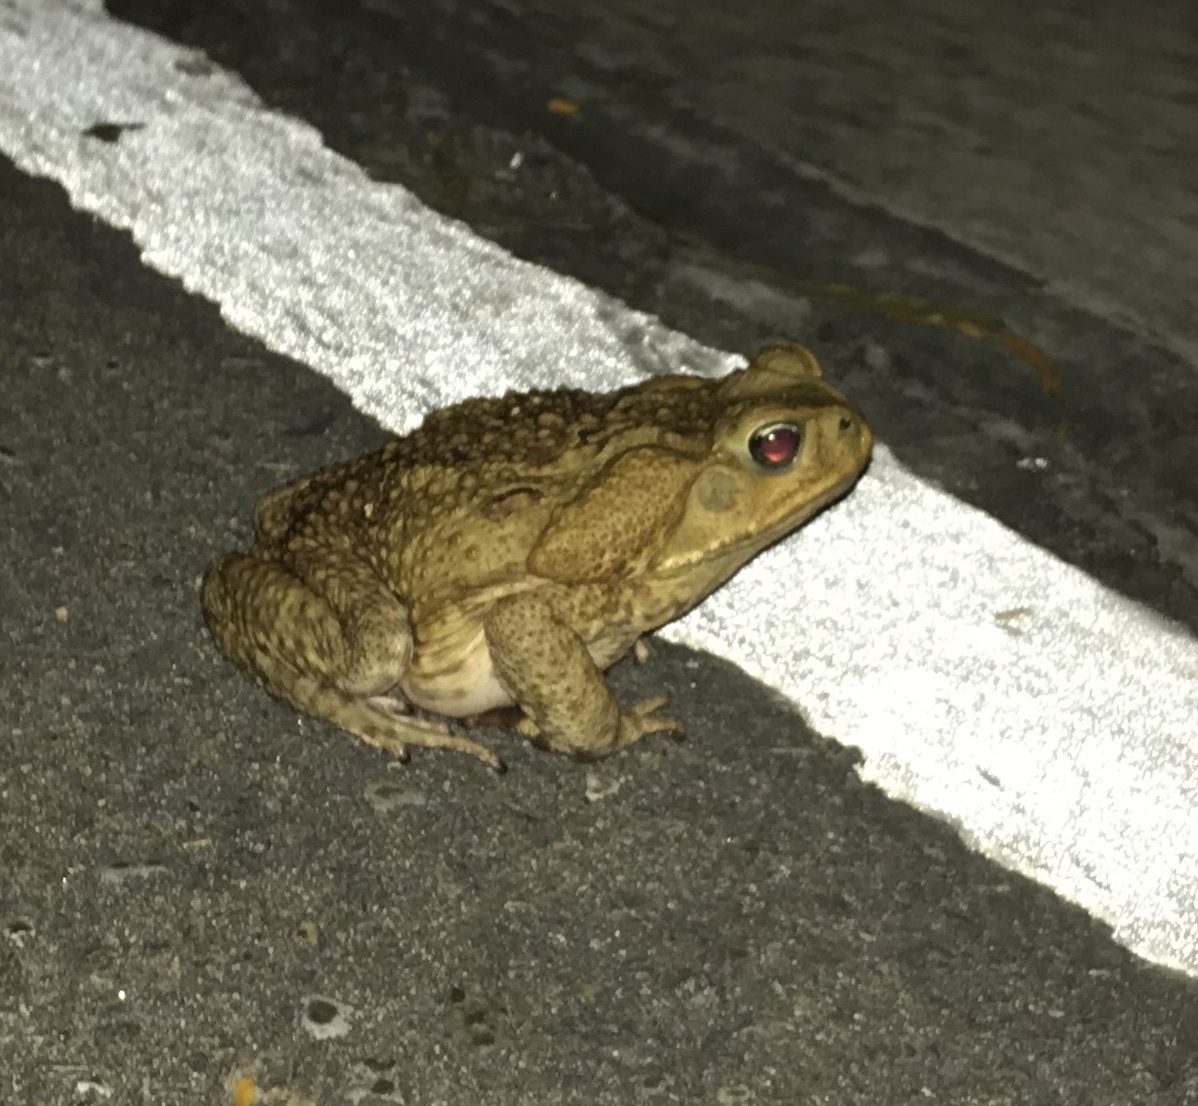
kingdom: Animalia
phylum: Chordata
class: Amphibia
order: Anura
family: Bufonidae
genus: Rhinella
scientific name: Rhinella horribilis
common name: Mesoamerican cane toad
